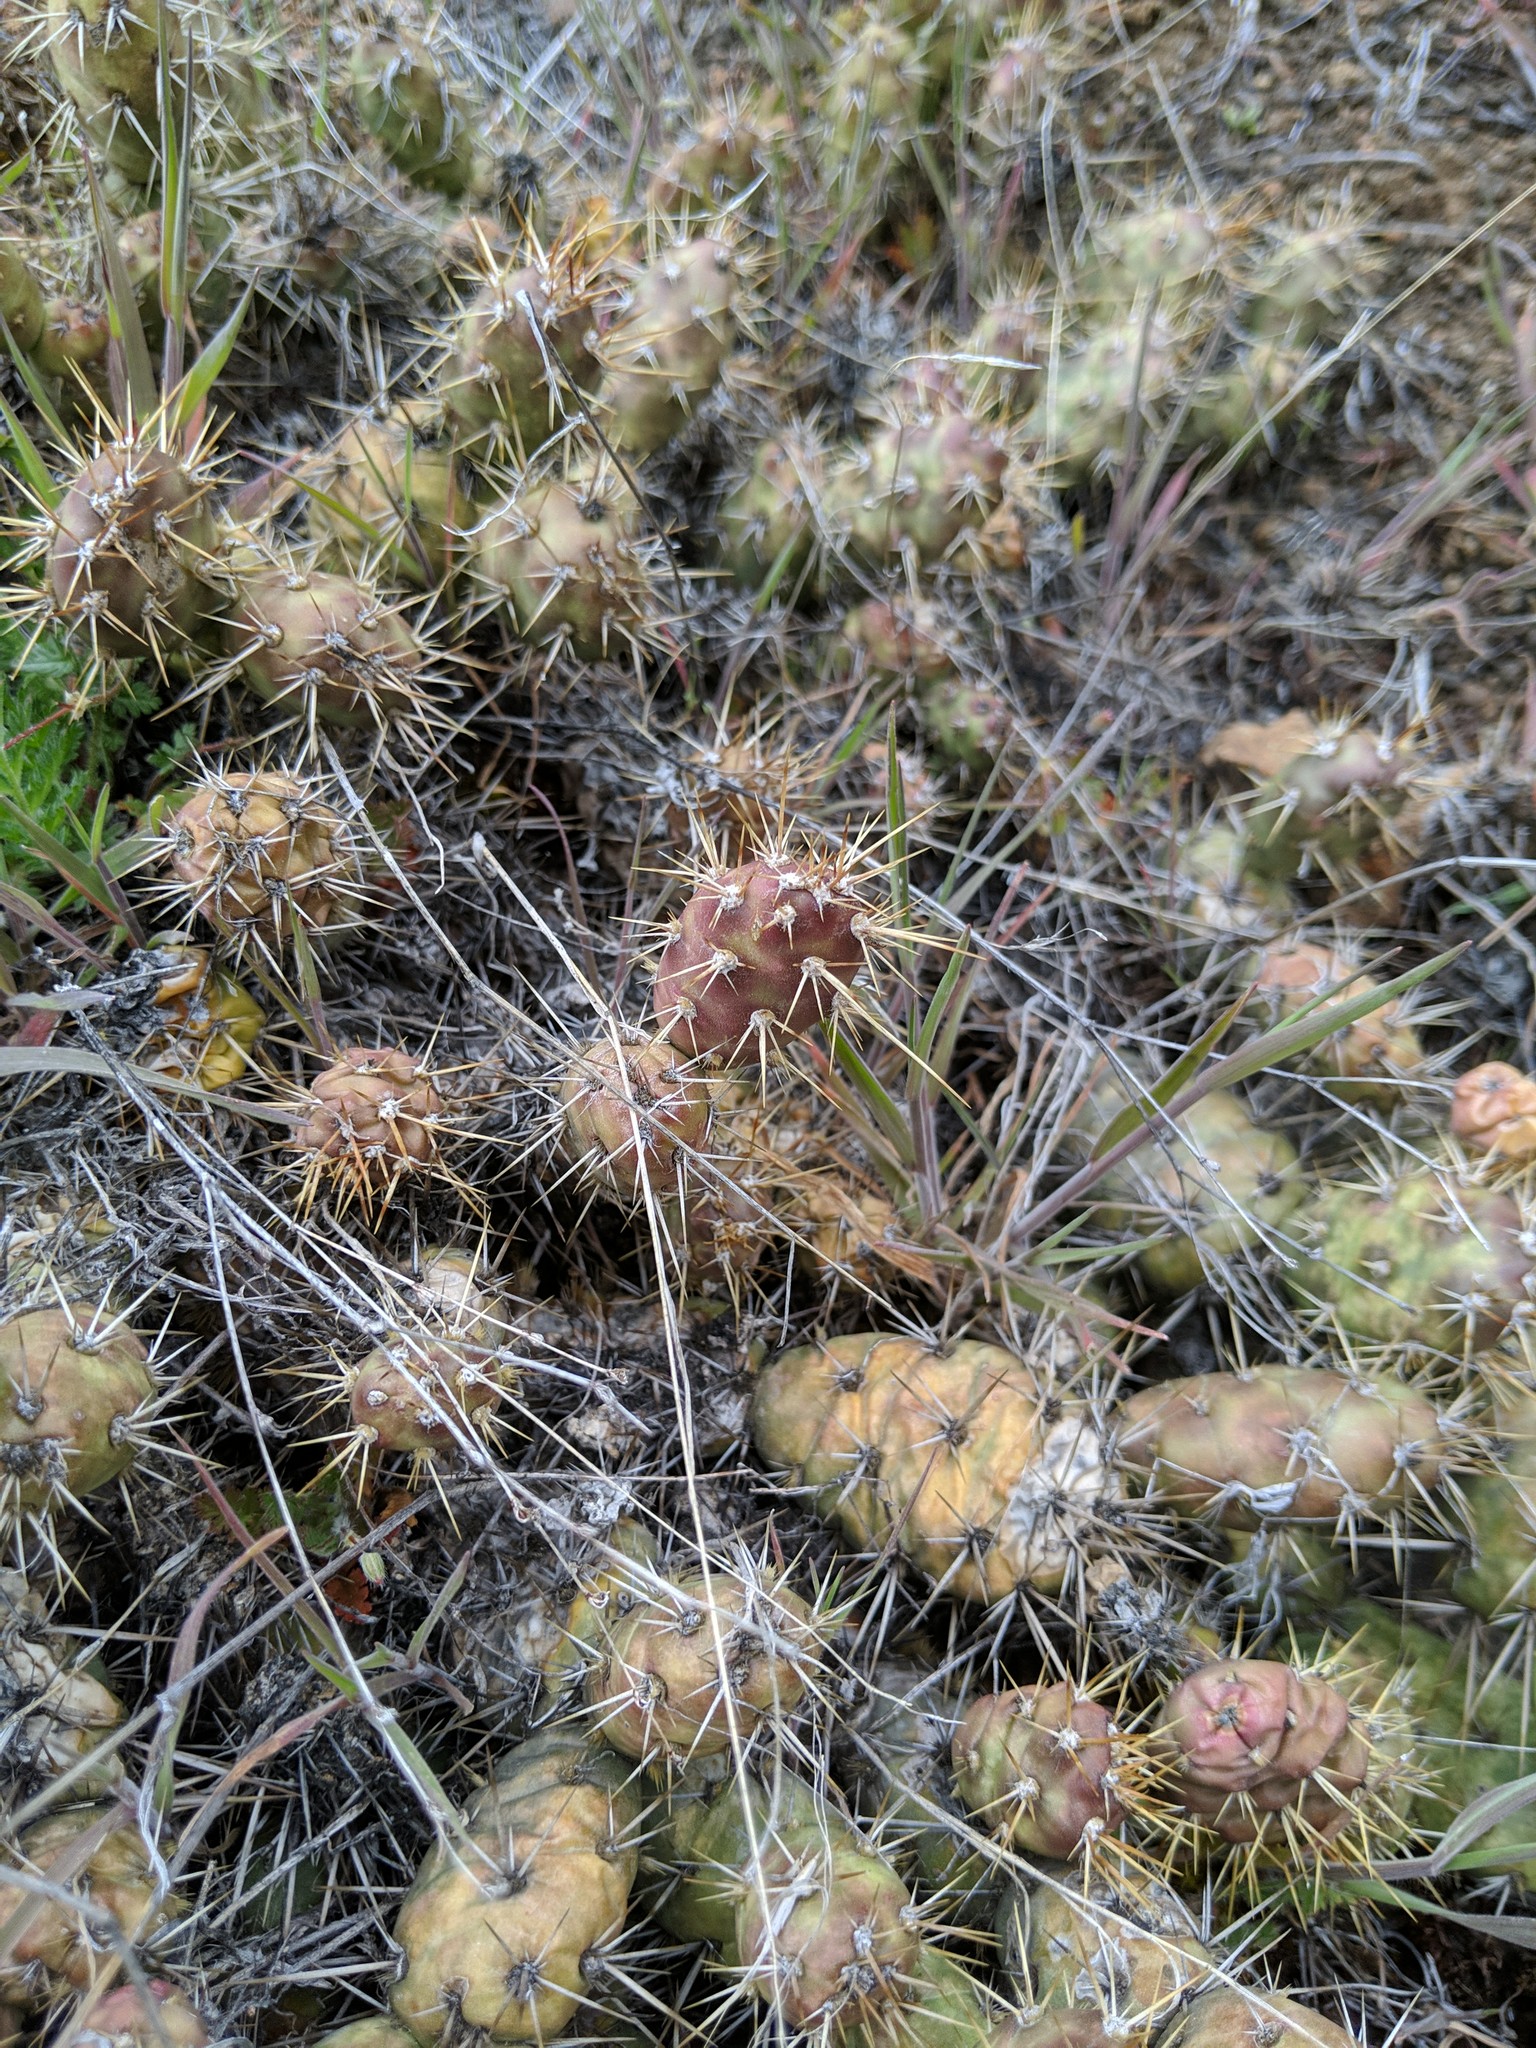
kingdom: Plantae
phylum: Tracheophyta
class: Magnoliopsida
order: Caryophyllales
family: Cactaceae
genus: Opuntia
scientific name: Opuntia fragilis
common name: Brittle cactus
